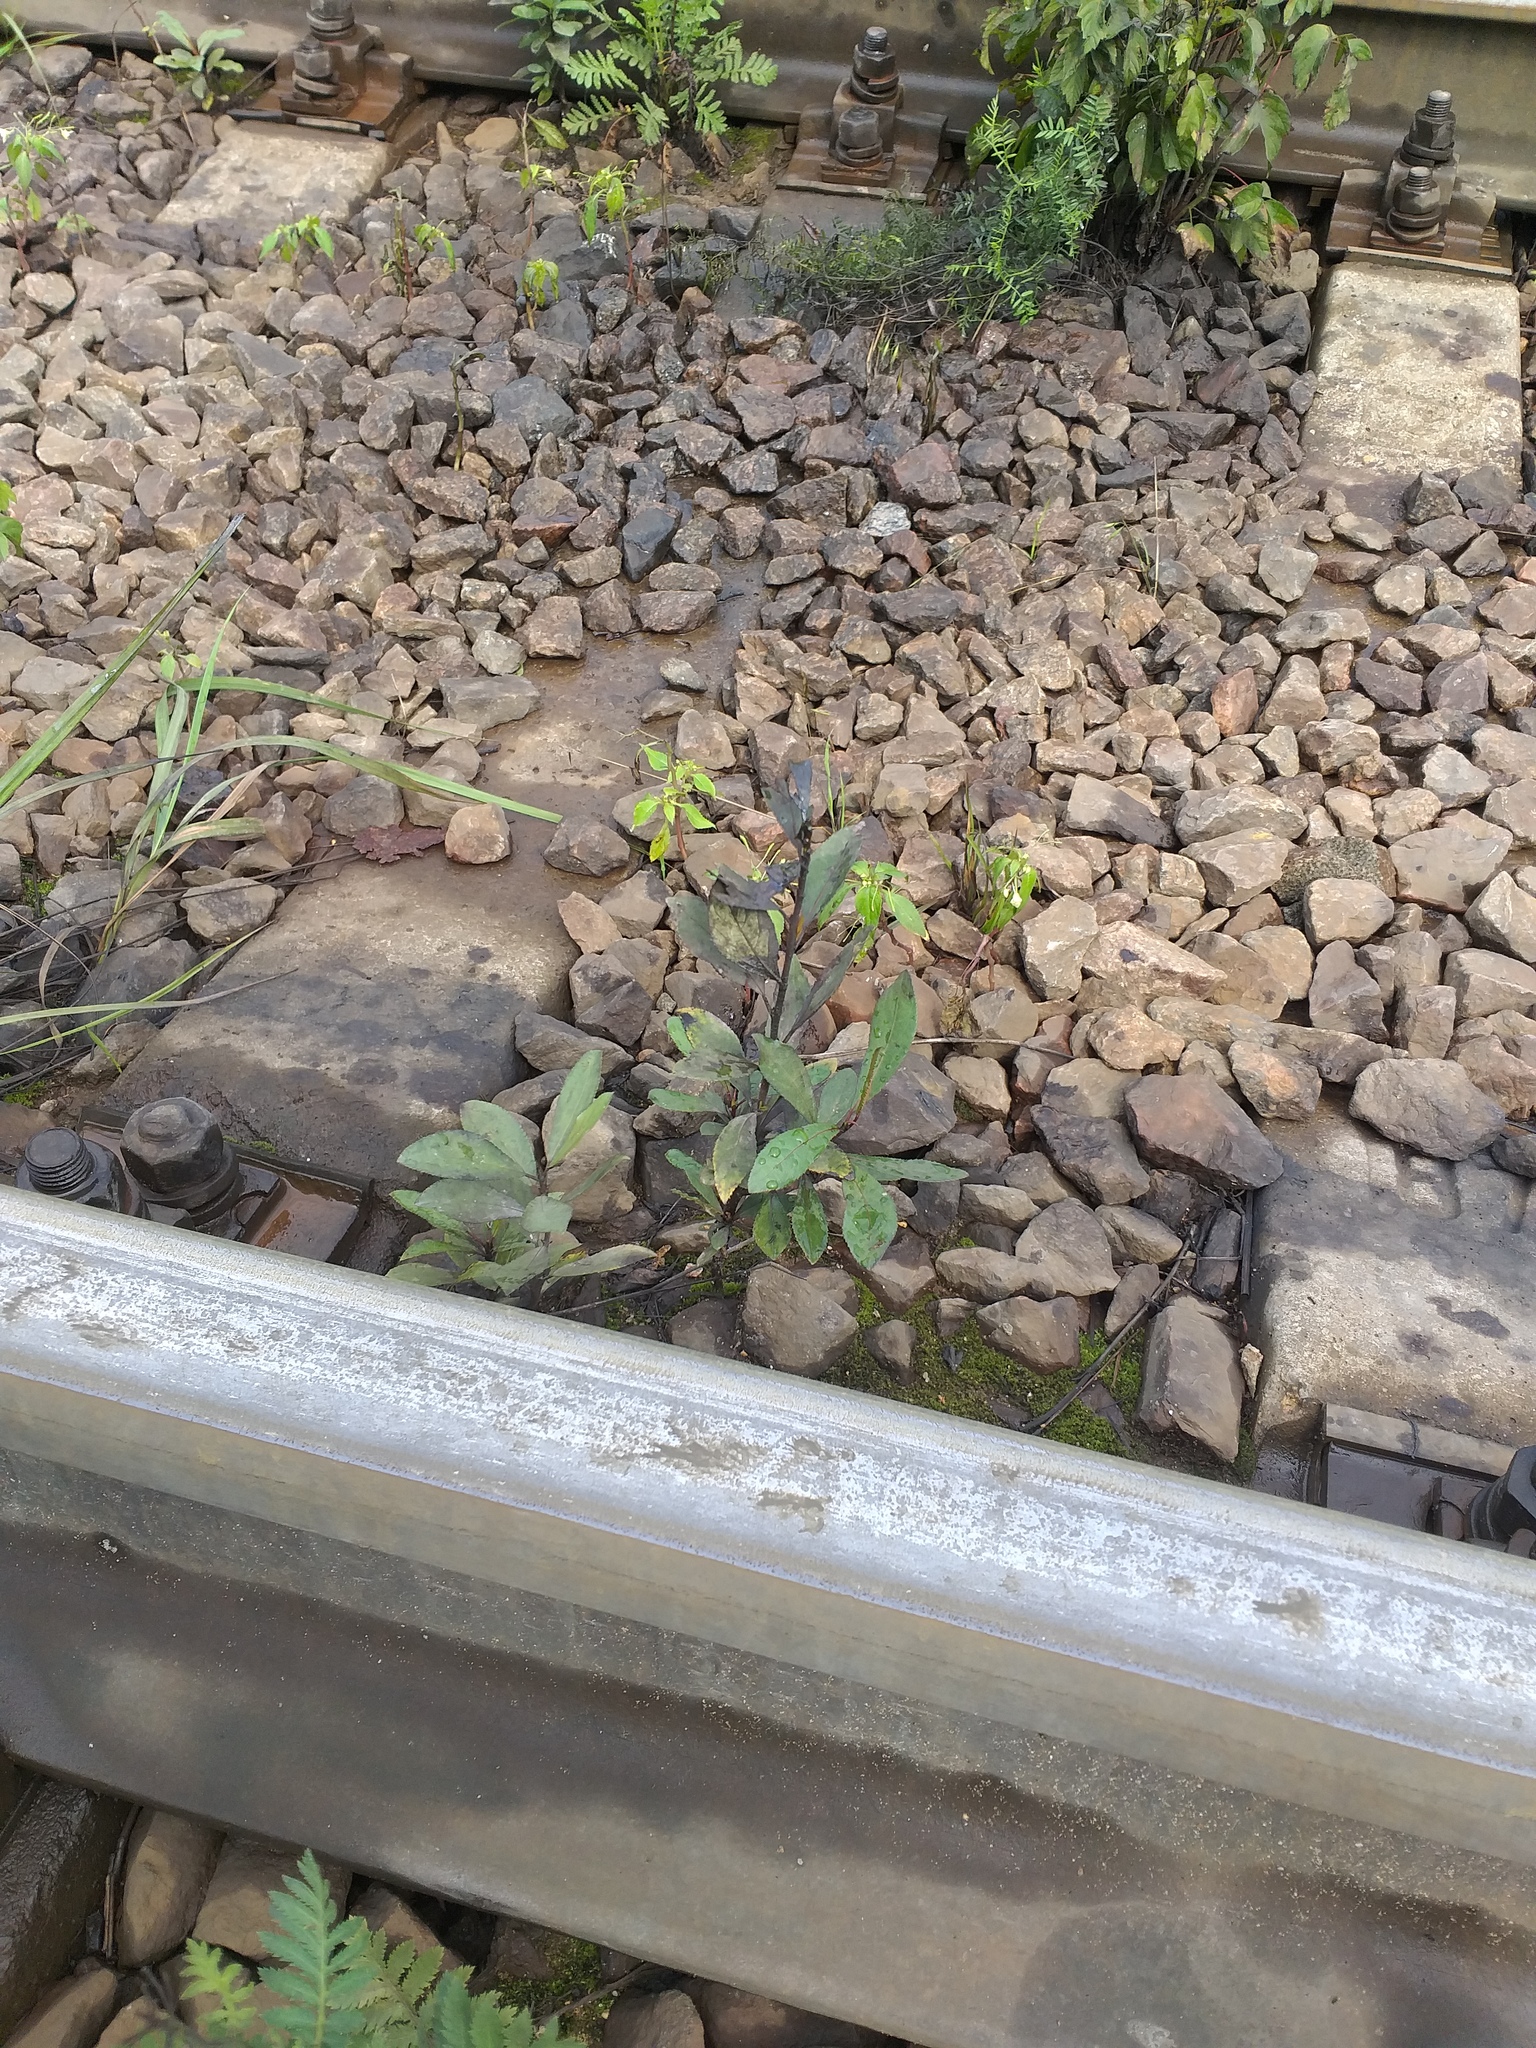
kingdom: Plantae
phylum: Tracheophyta
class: Magnoliopsida
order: Malpighiales
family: Salicaceae
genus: Populus
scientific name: Populus
